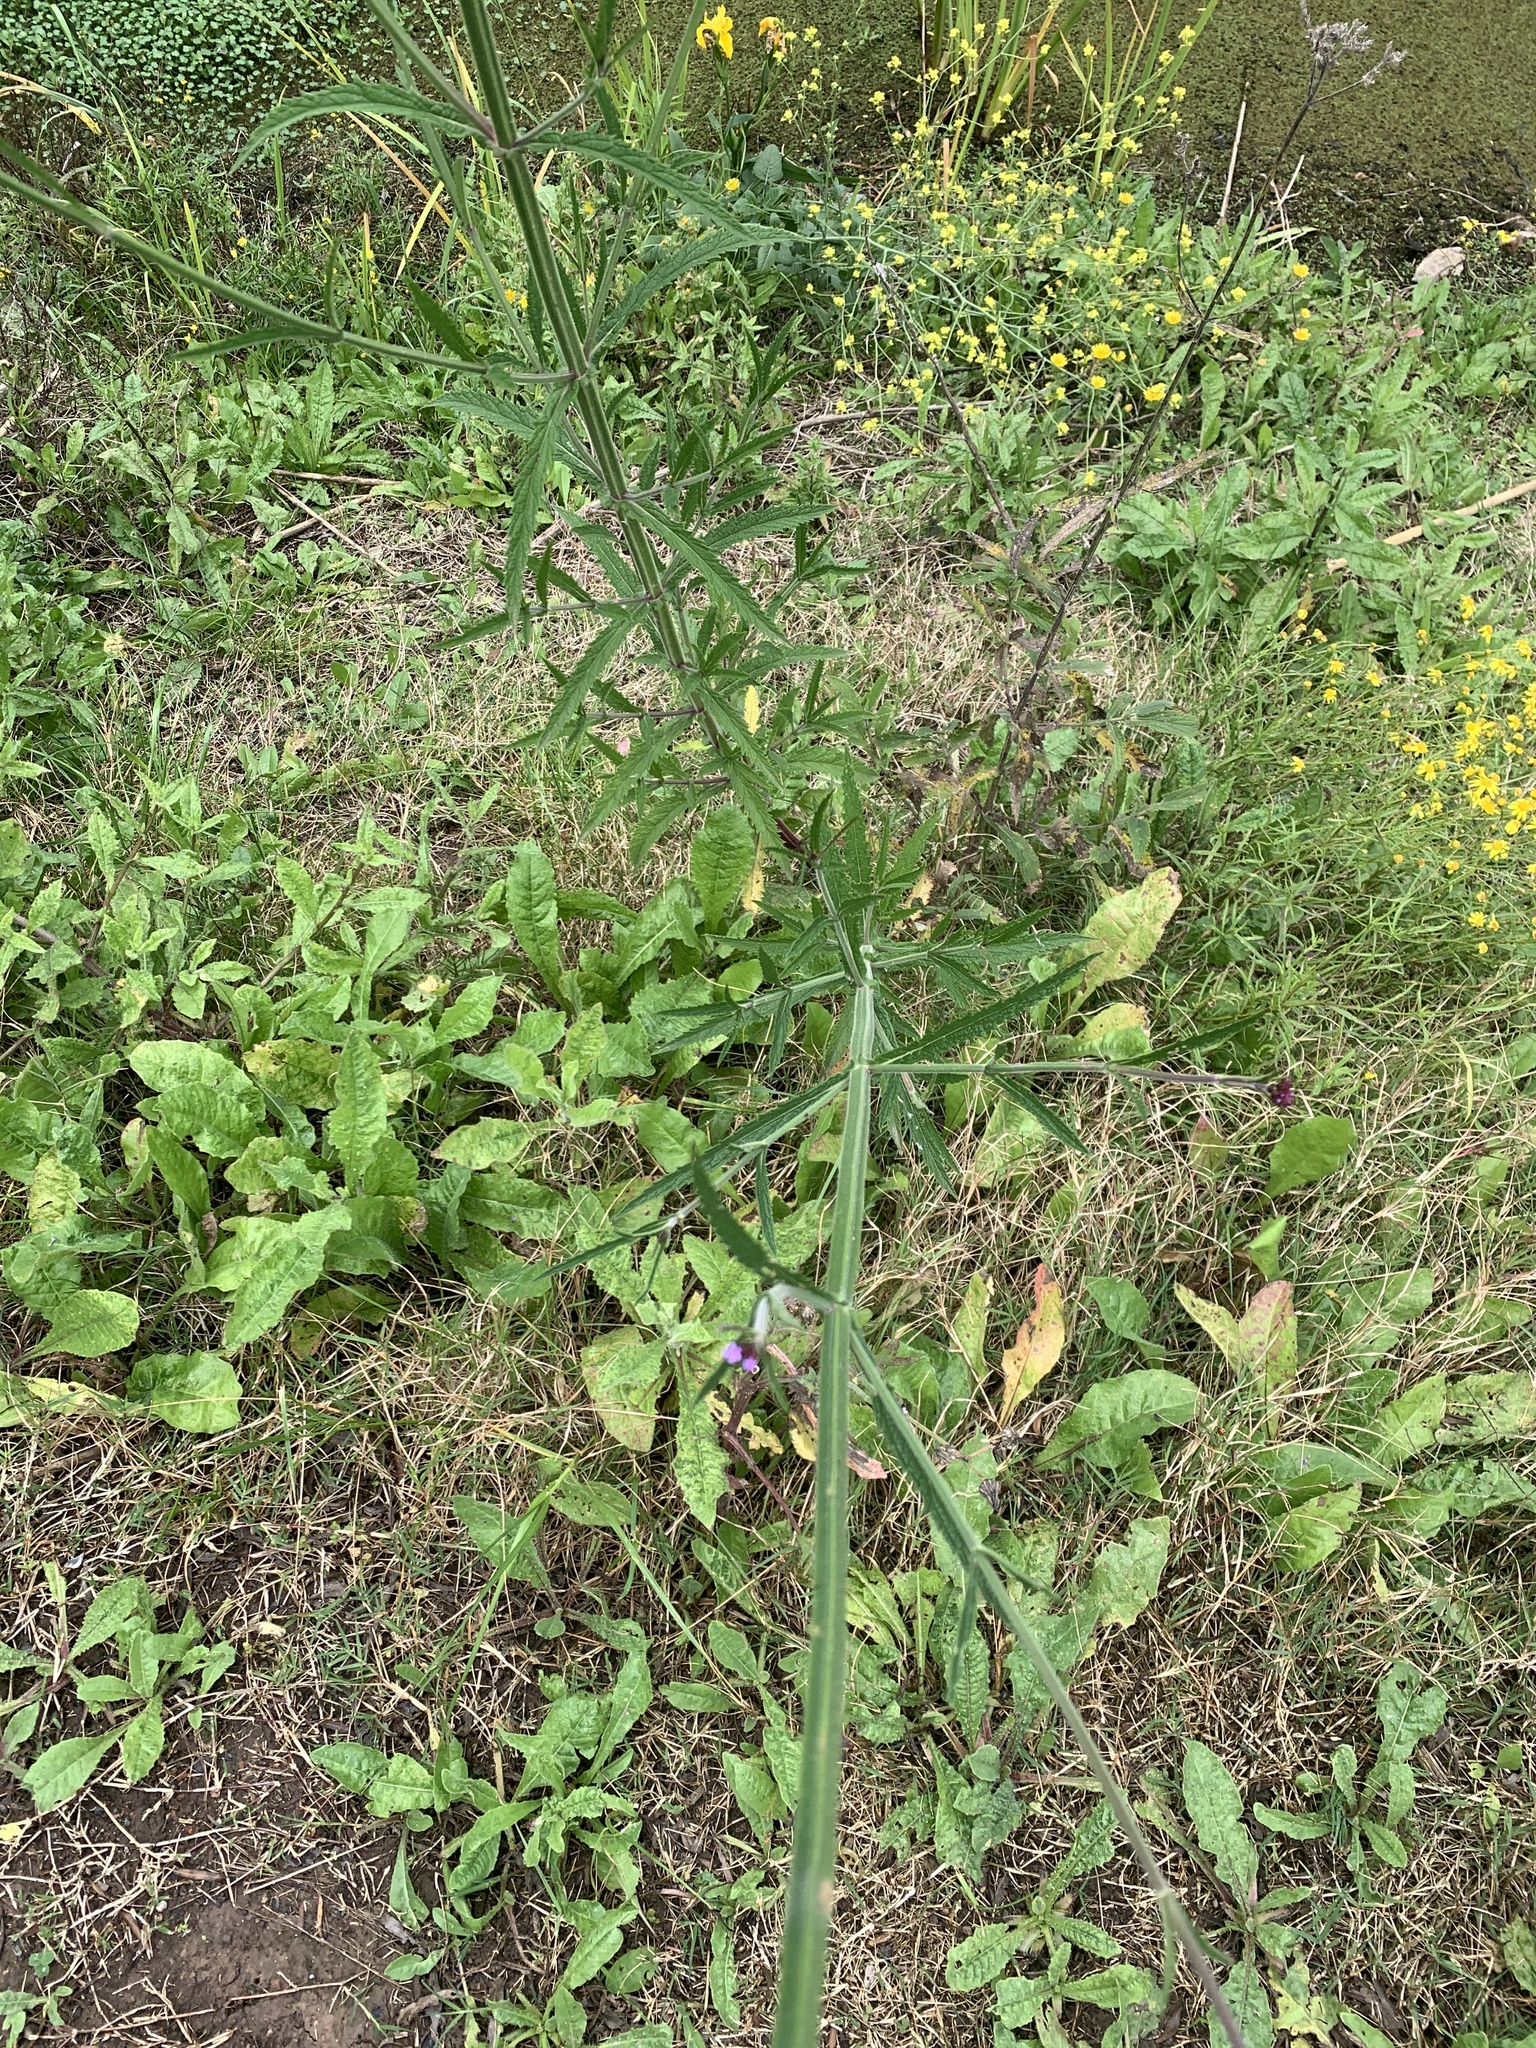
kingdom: Plantae
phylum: Tracheophyta
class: Magnoliopsida
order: Lamiales
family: Verbenaceae
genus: Verbena
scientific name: Verbena bonariensis
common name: Purpletop vervain
